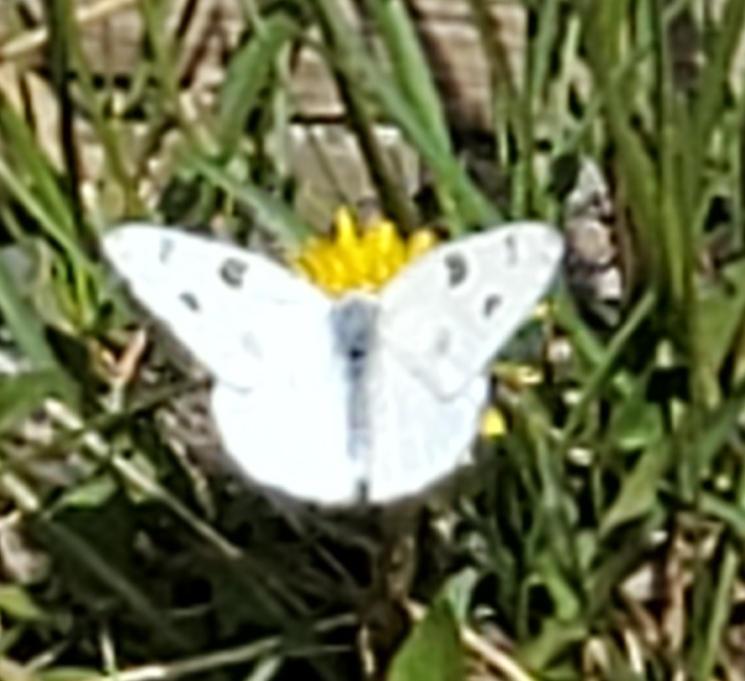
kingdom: Animalia
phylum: Arthropoda
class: Insecta
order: Lepidoptera
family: Pieridae
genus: Pontia
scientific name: Pontia protodice
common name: Checkered white
